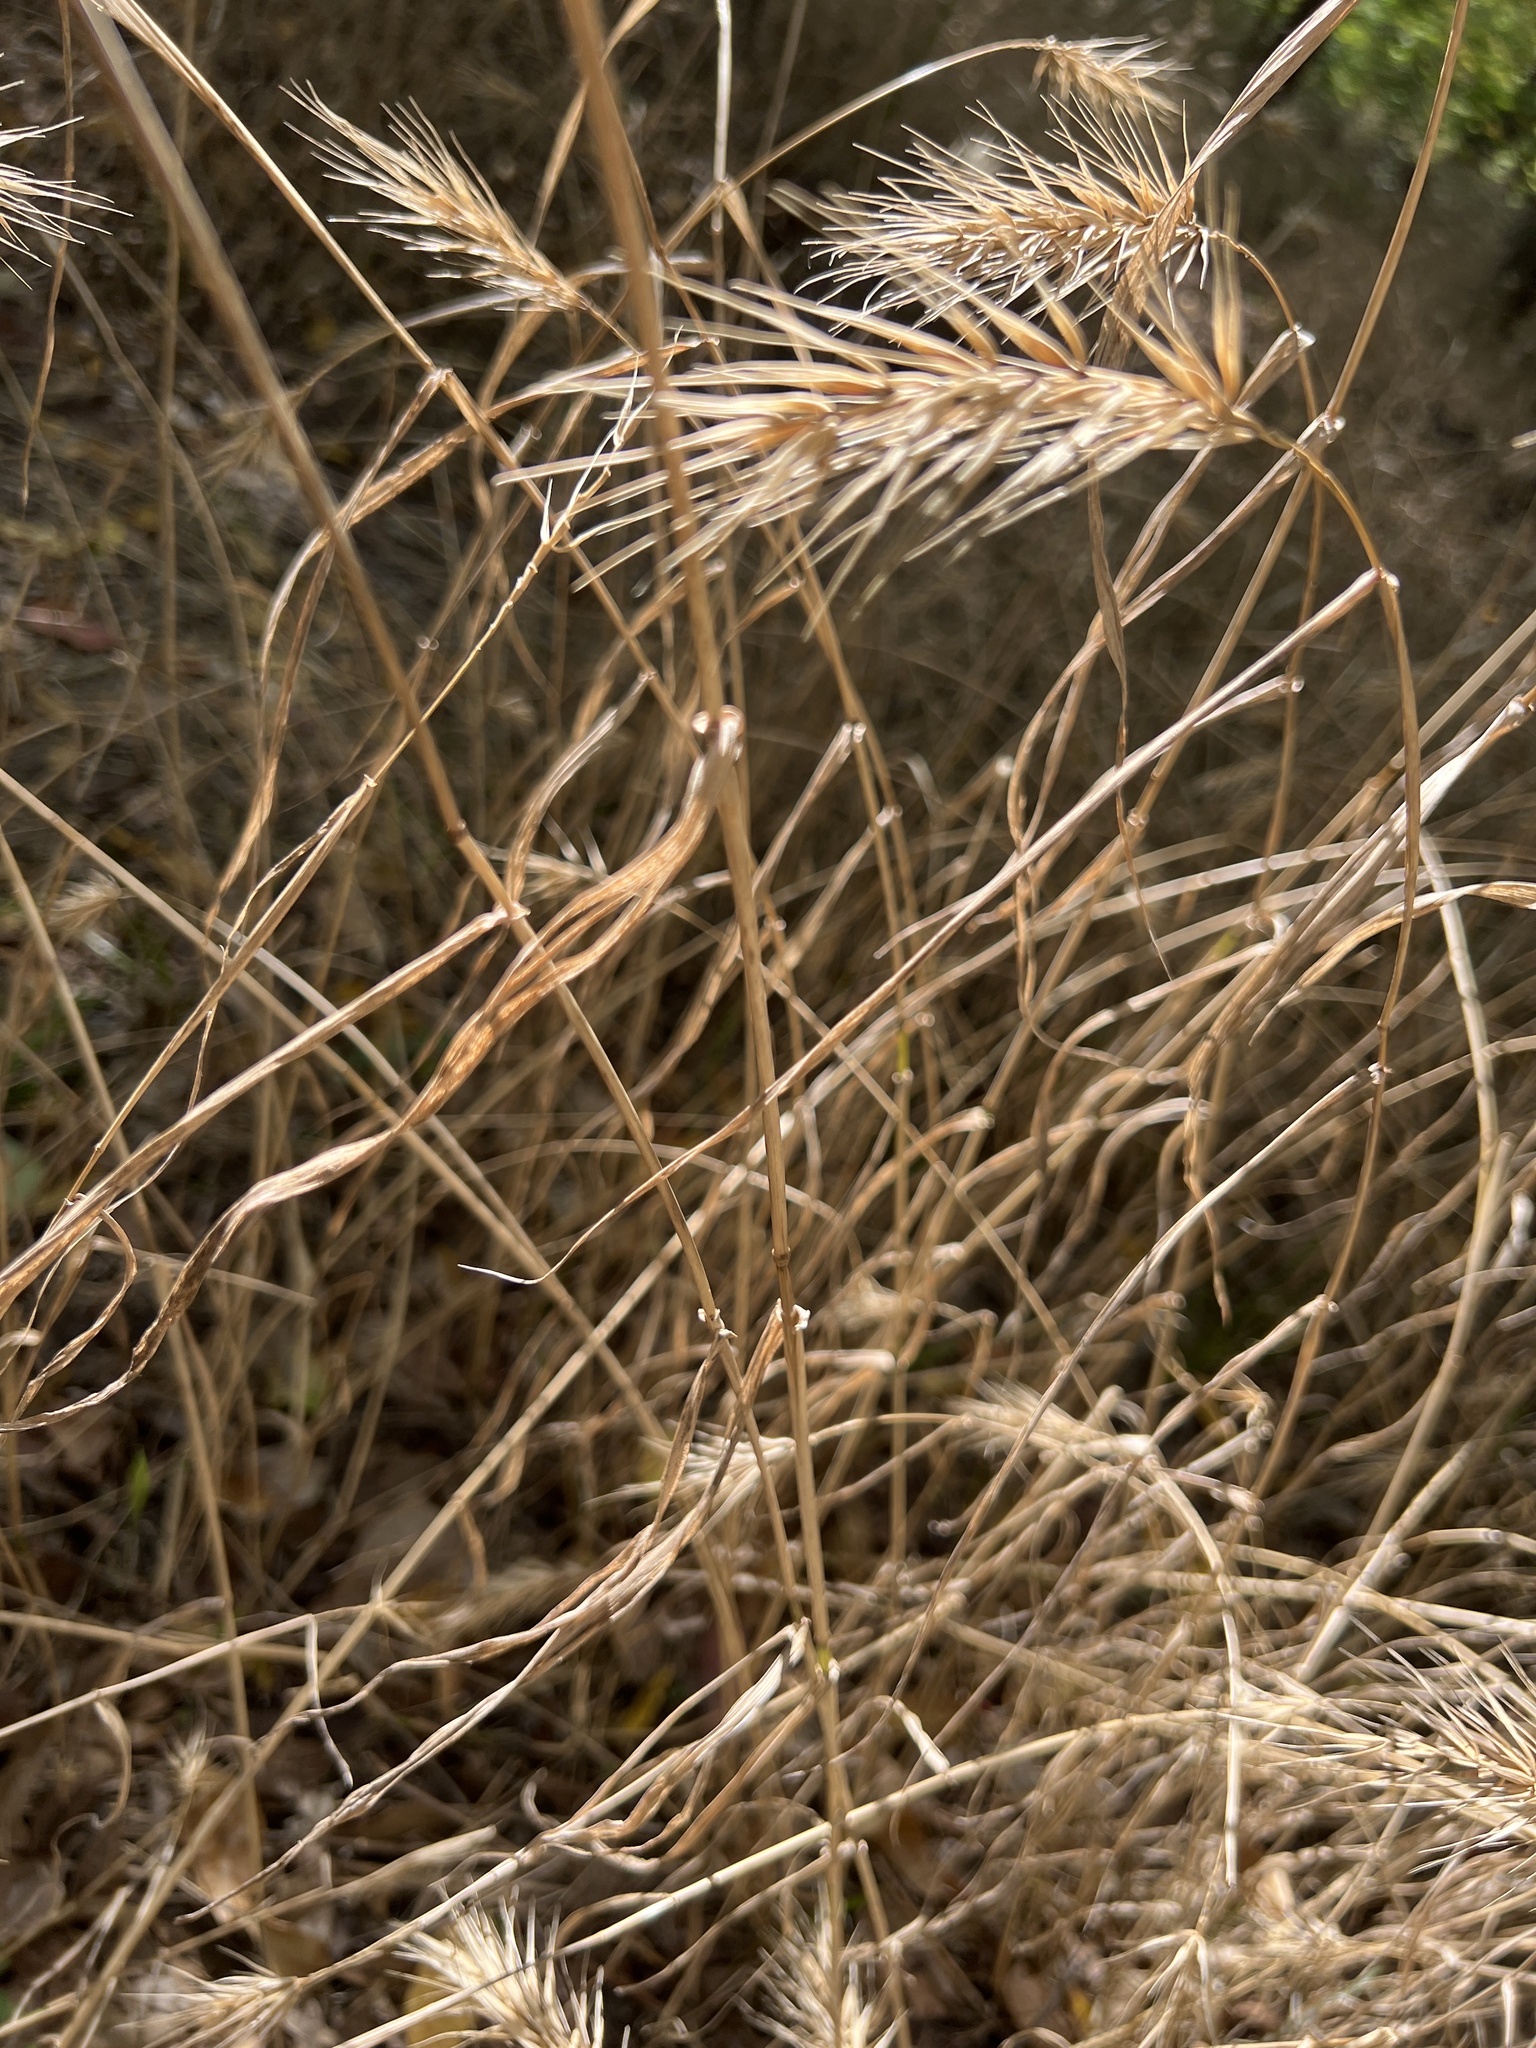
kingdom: Plantae
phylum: Tracheophyta
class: Liliopsida
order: Poales
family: Poaceae
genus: Elymus
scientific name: Elymus virginicus
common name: Common eastern wildrye
